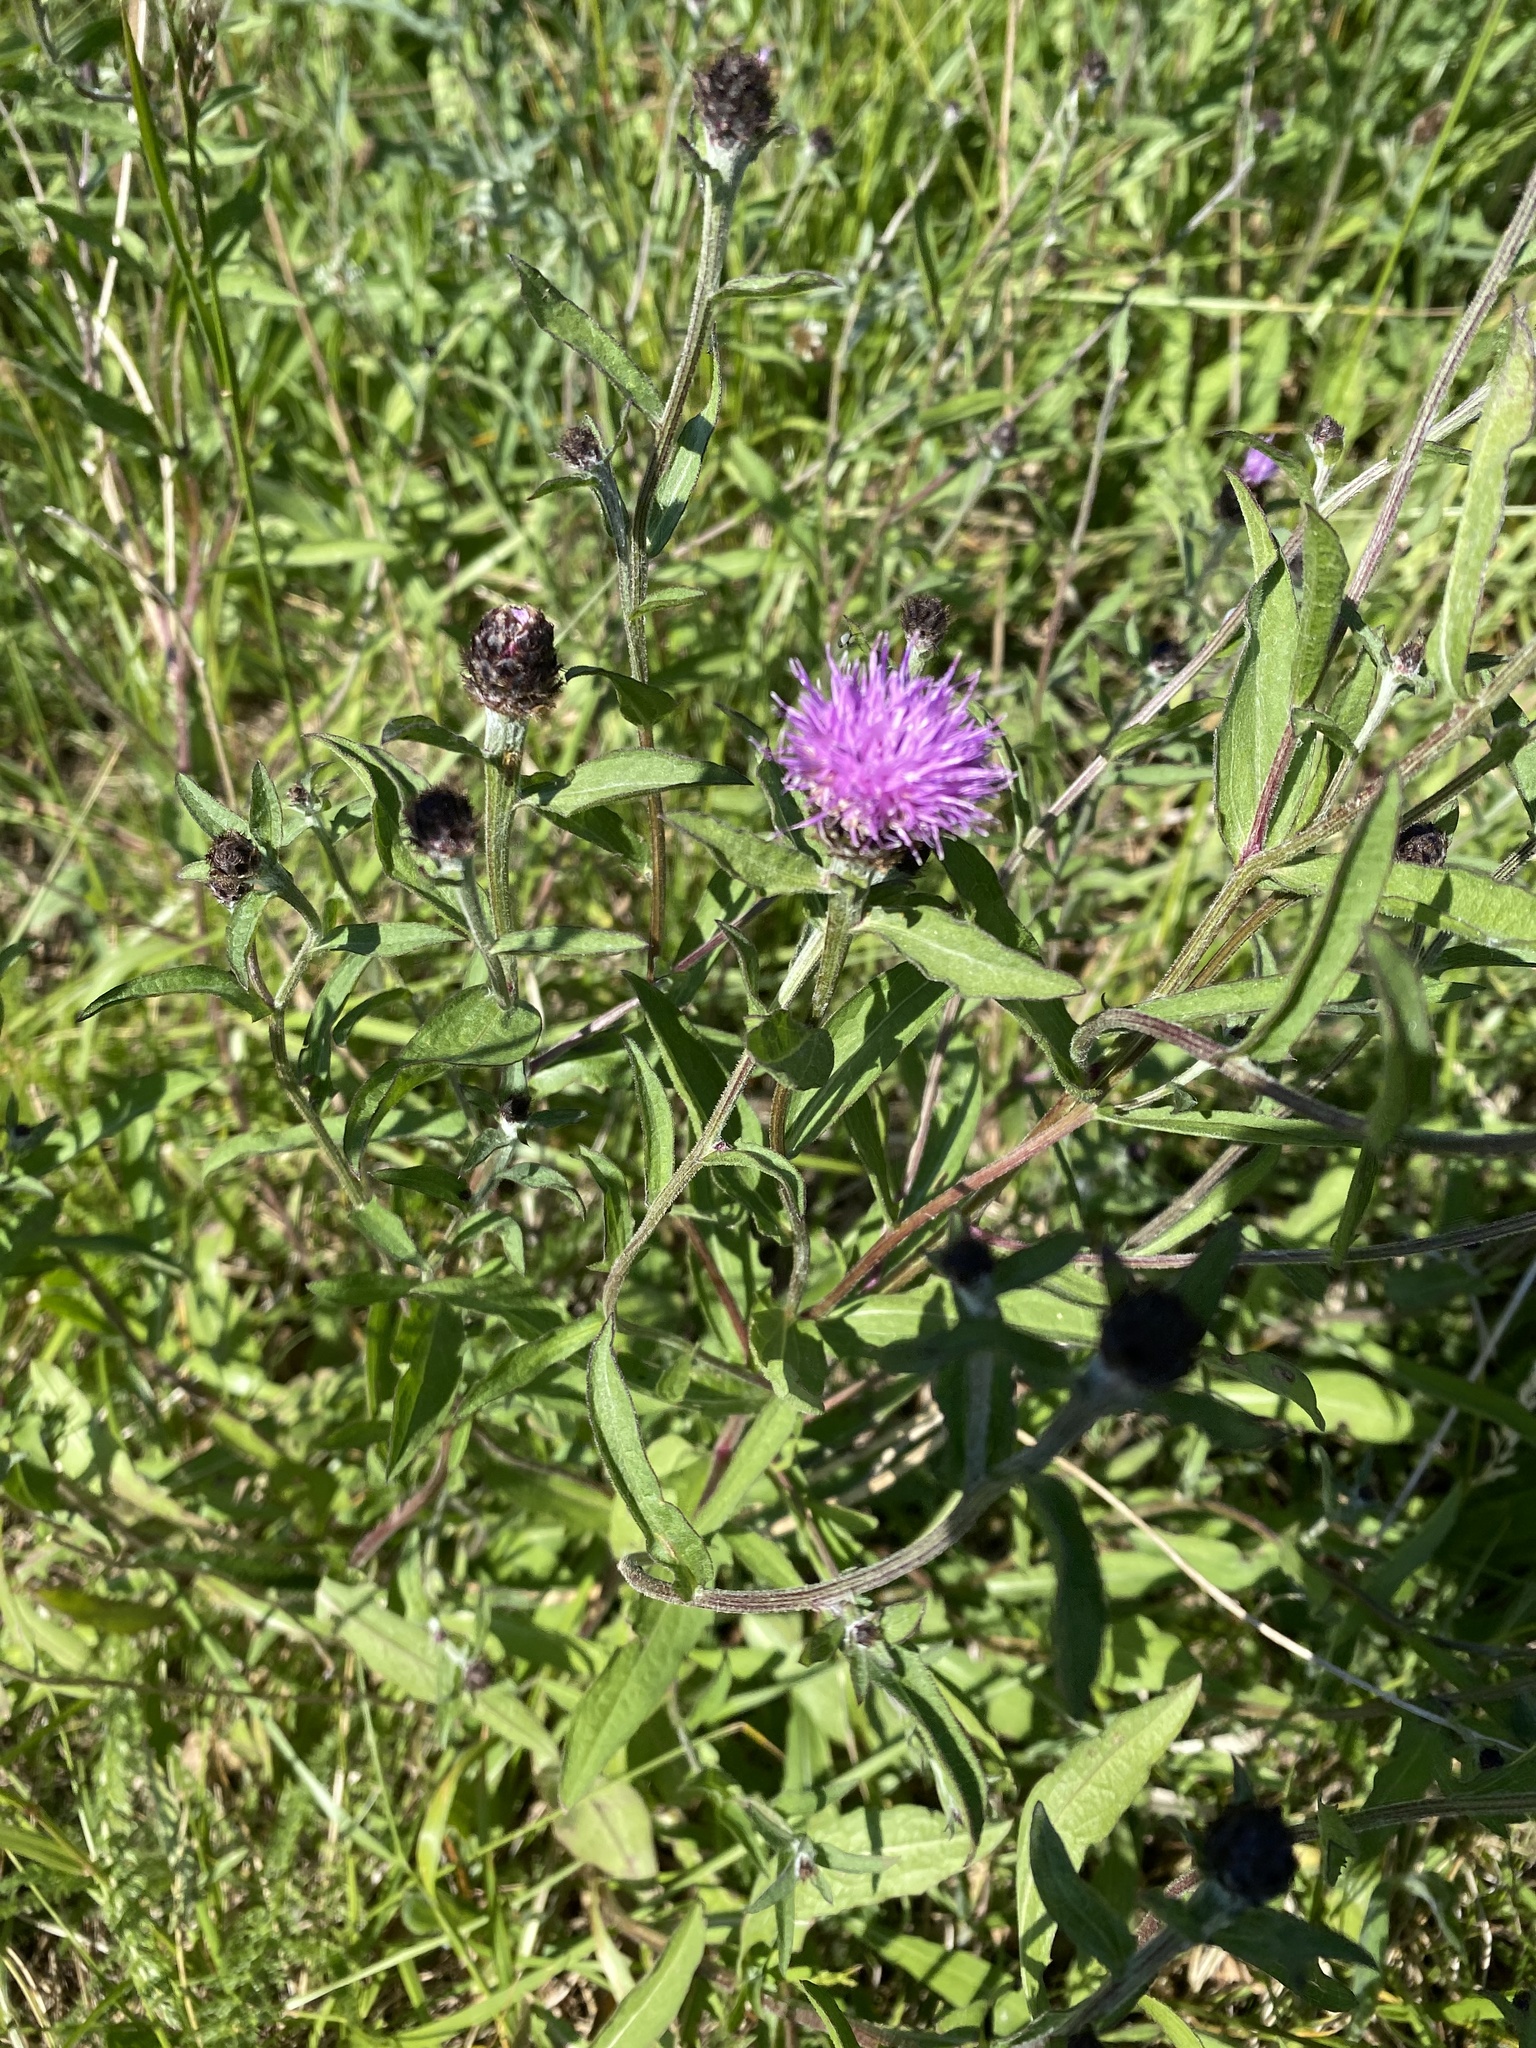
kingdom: Plantae
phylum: Tracheophyta
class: Magnoliopsida
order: Asterales
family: Asteraceae
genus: Centaurea
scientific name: Centaurea nigra
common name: Lesser knapweed
